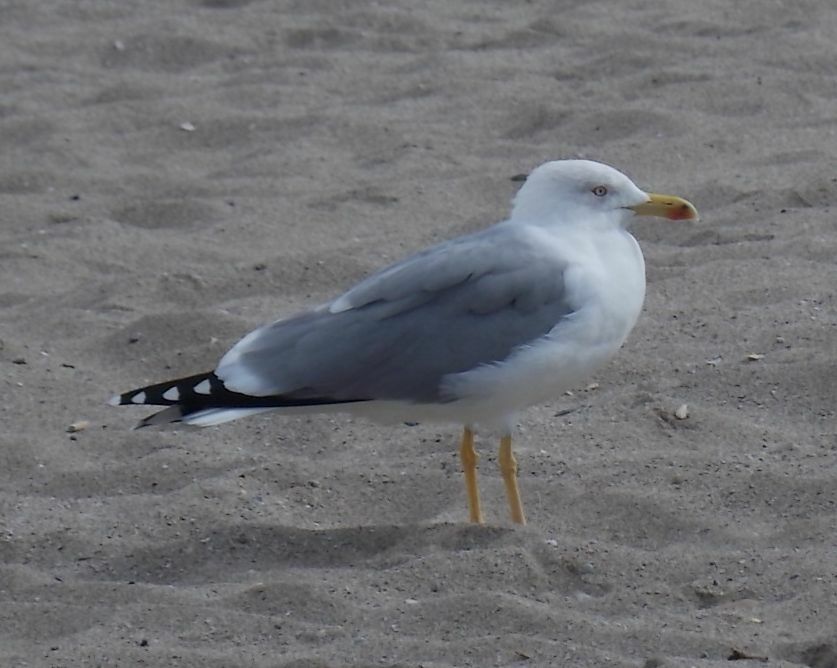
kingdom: Animalia
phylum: Chordata
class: Aves
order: Charadriiformes
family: Laridae
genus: Larus
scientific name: Larus michahellis
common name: Yellow-legged gull
